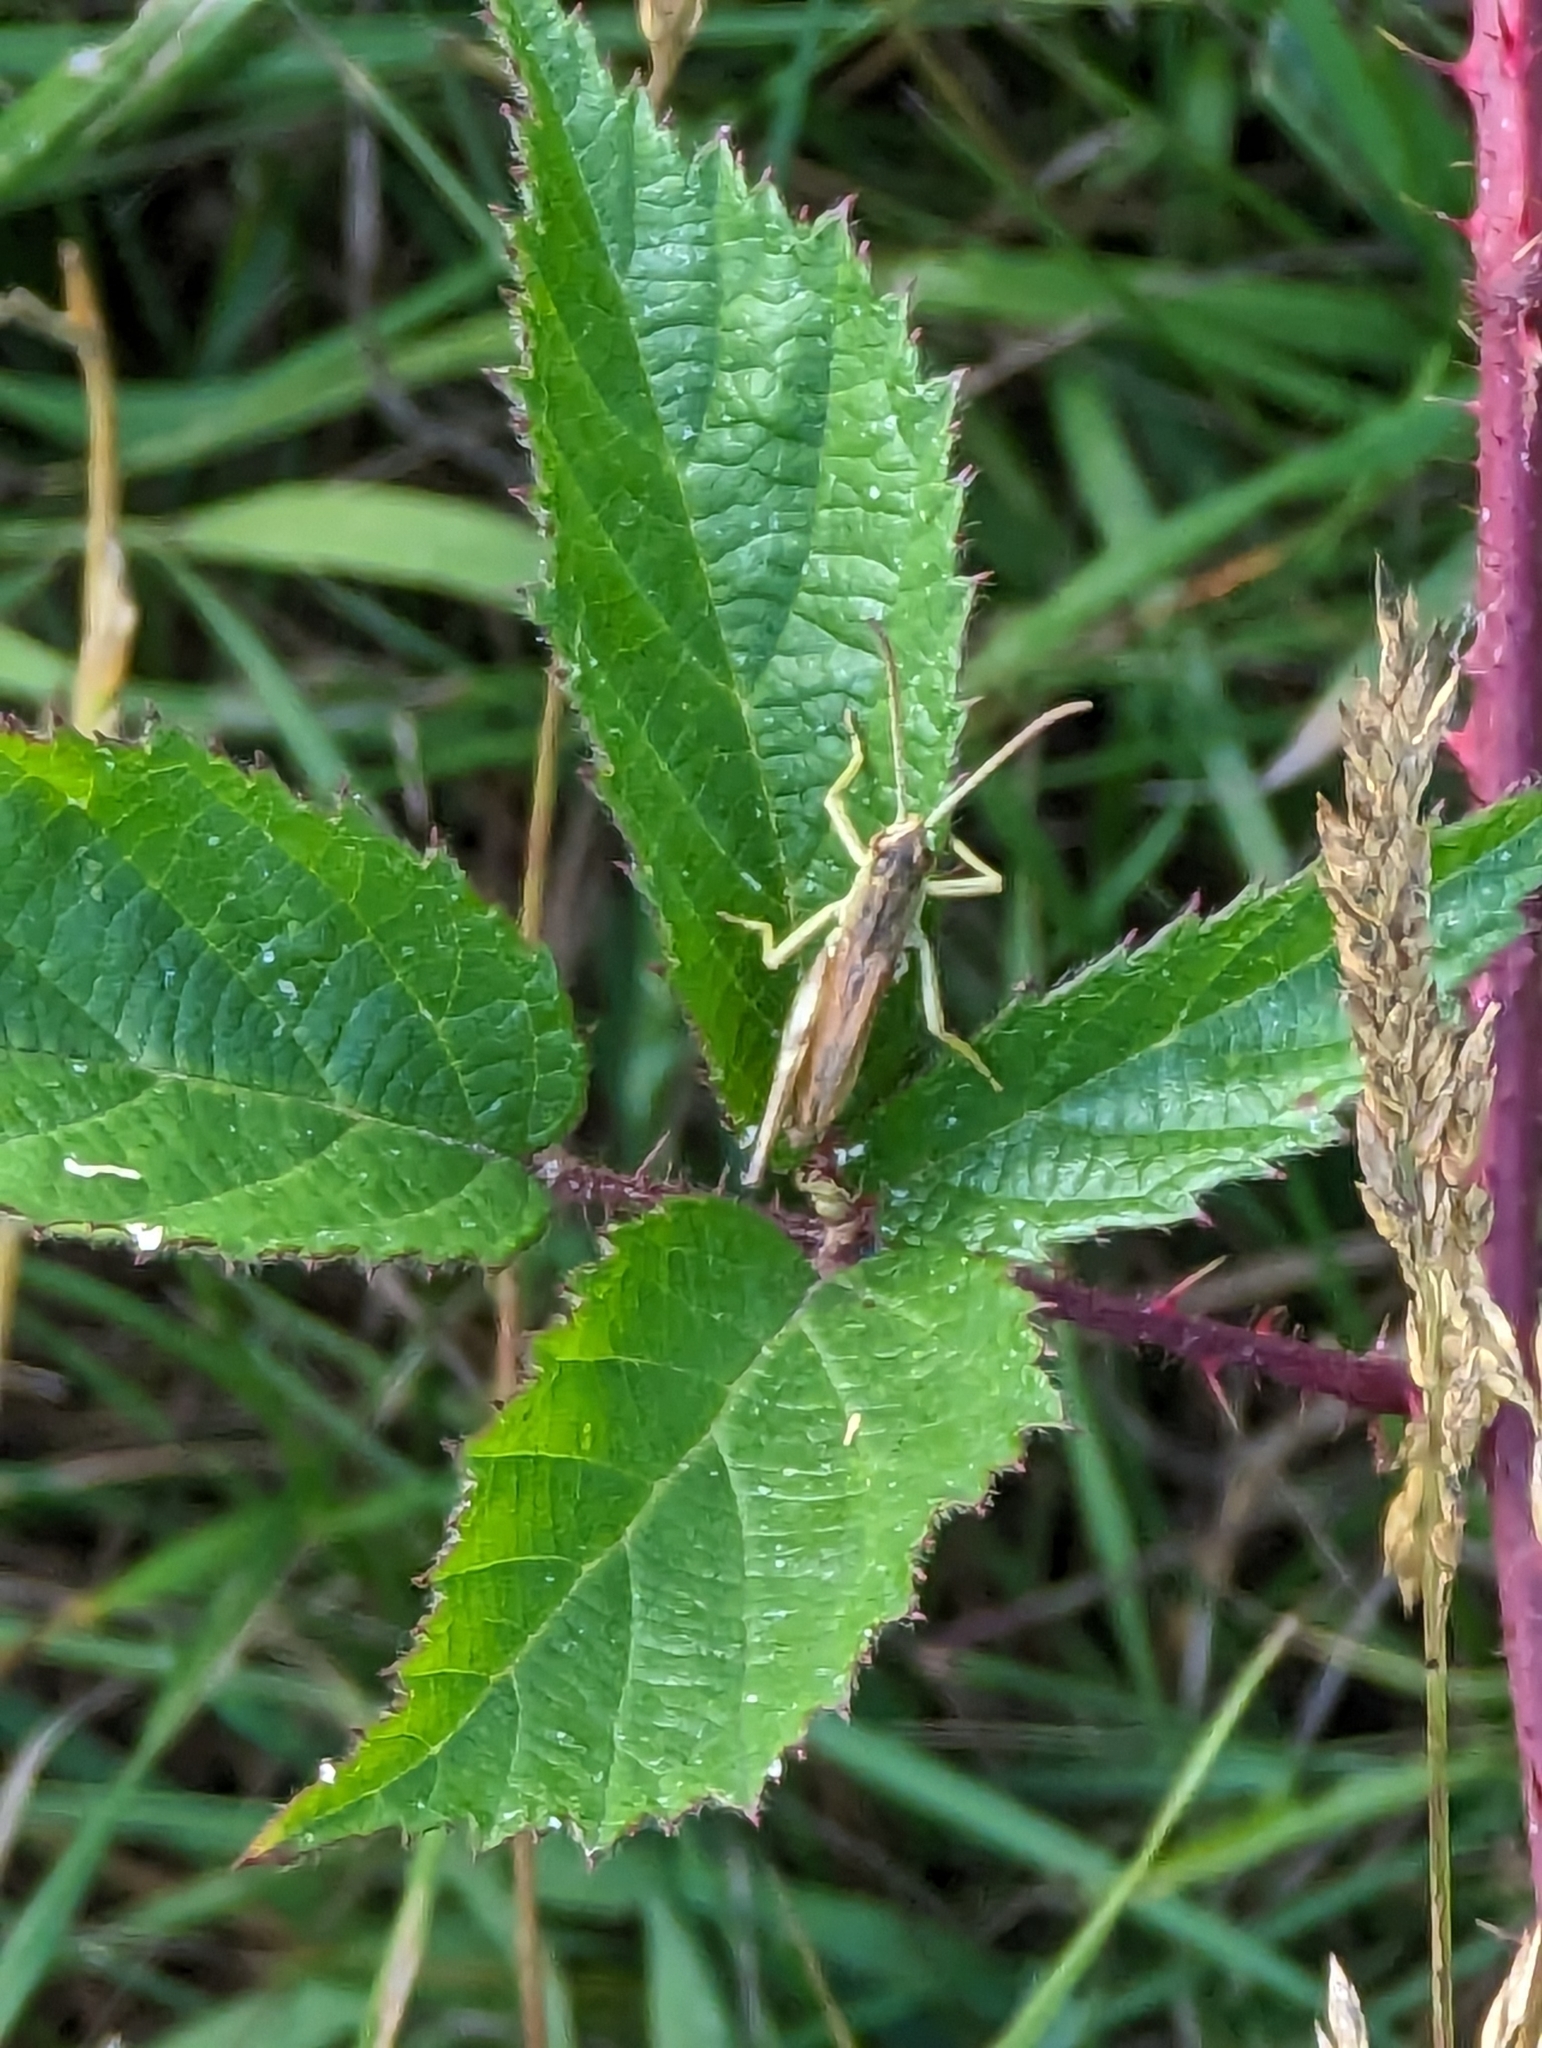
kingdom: Animalia
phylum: Arthropoda
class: Insecta
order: Orthoptera
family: Acrididae
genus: Pseudochorthippus
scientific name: Pseudochorthippus parallelus
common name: Meadow grasshopper
